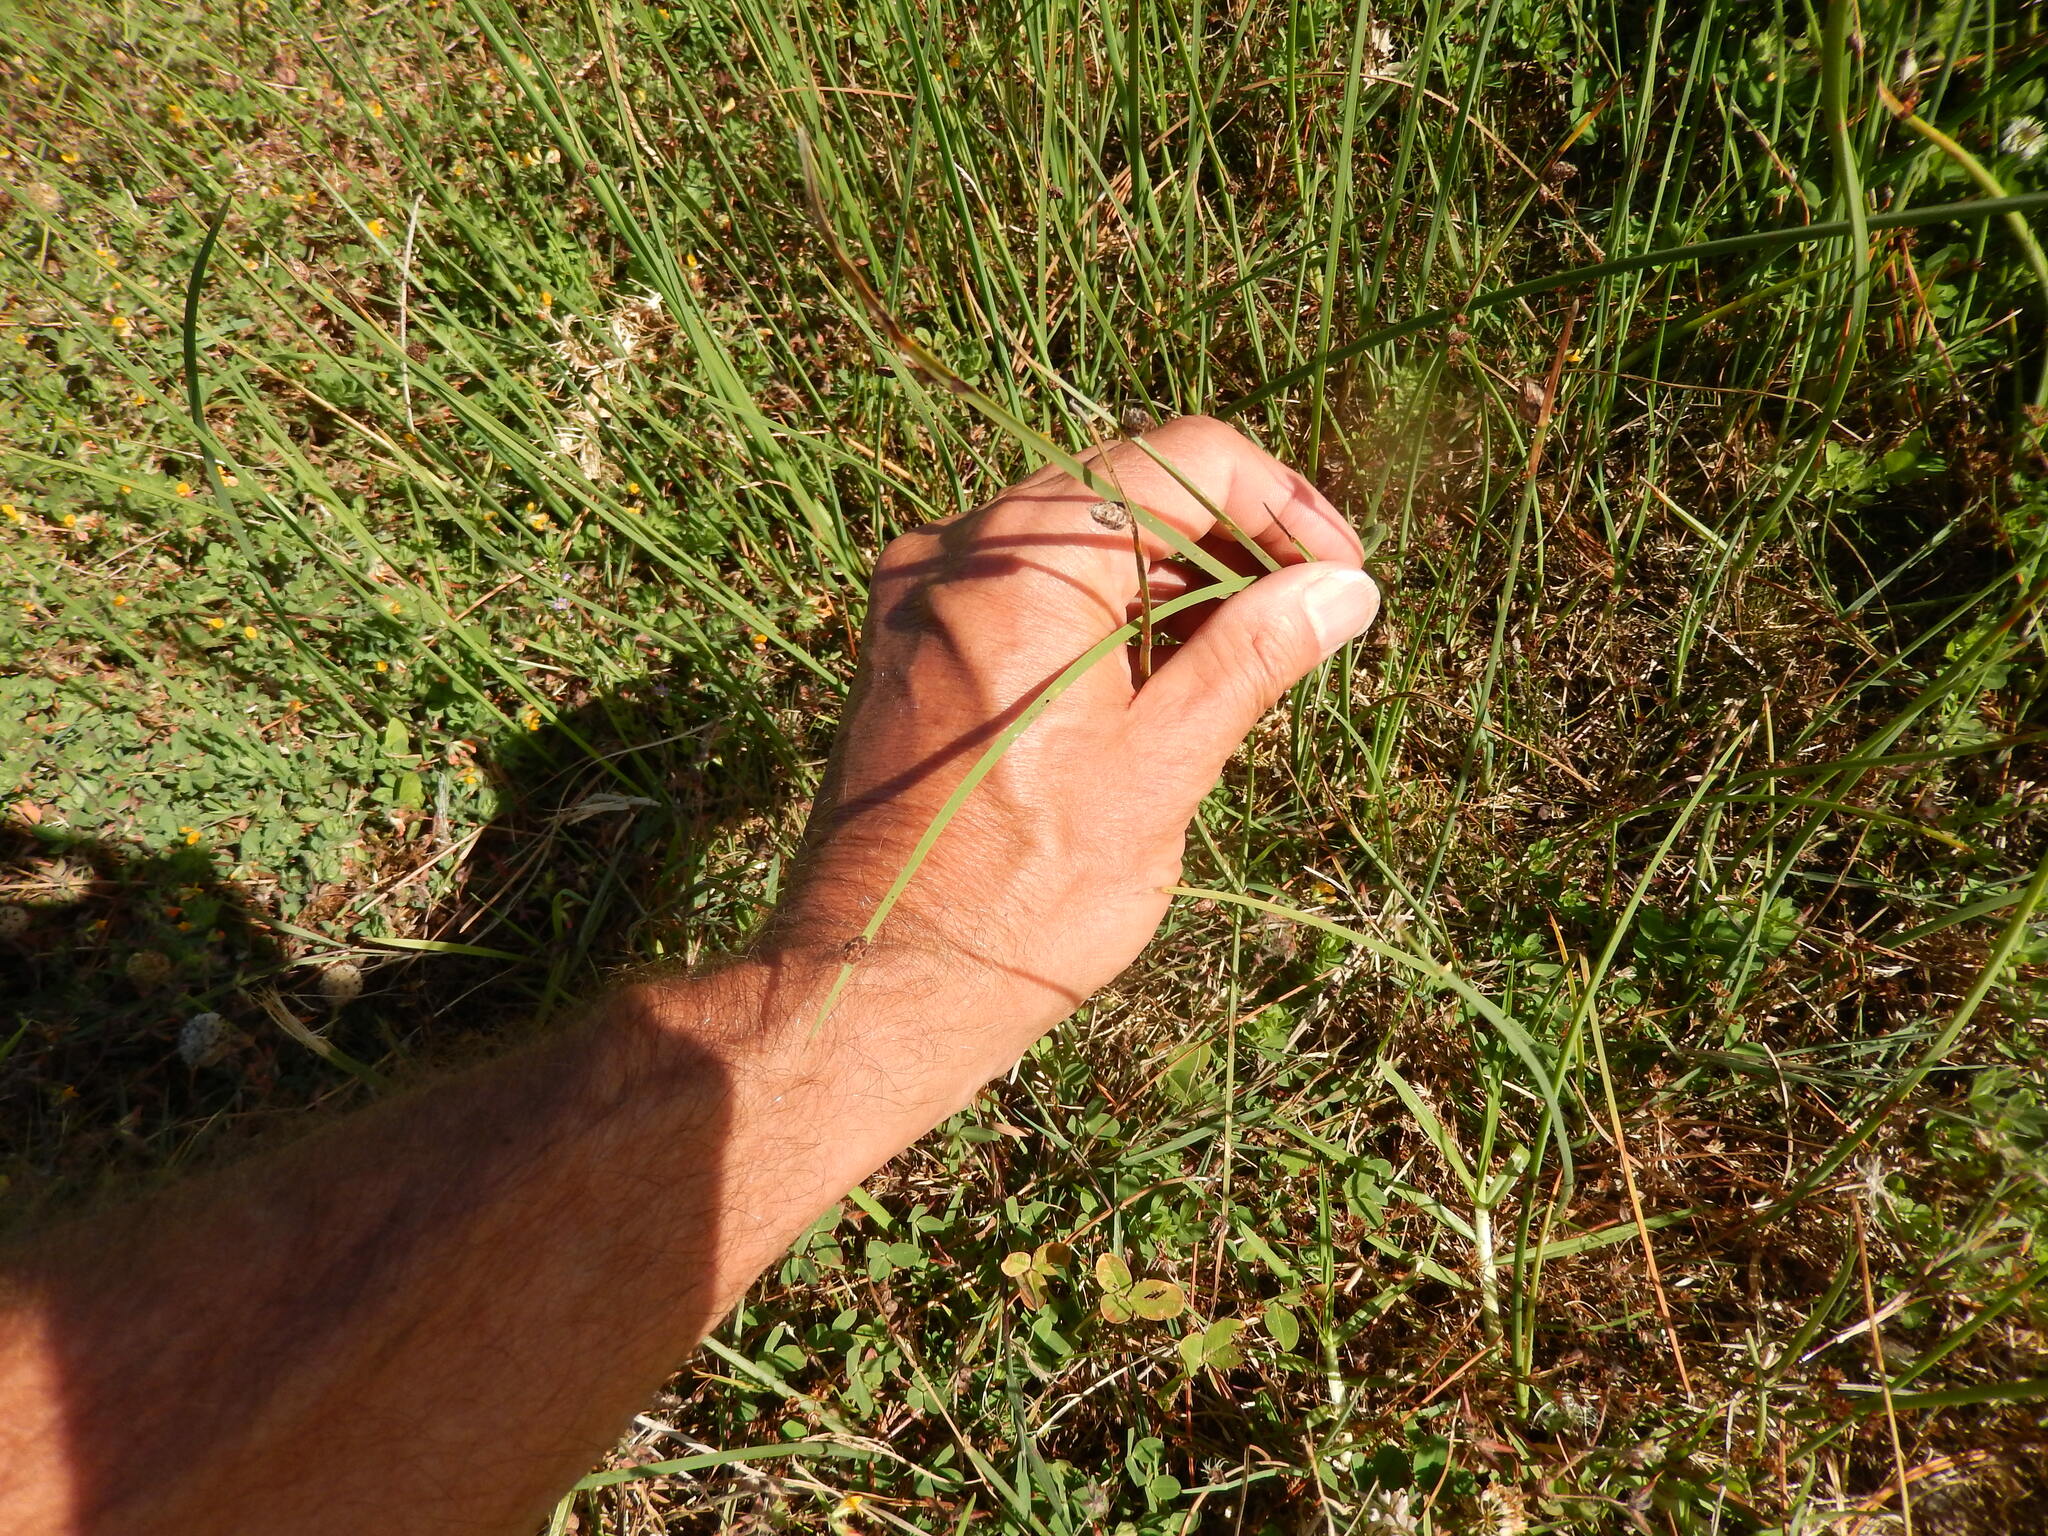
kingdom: Plantae
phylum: Tracheophyta
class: Liliopsida
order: Poales
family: Cyperaceae
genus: Schoenoplectus
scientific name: Schoenoplectus pungens
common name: Sharp club-rush
